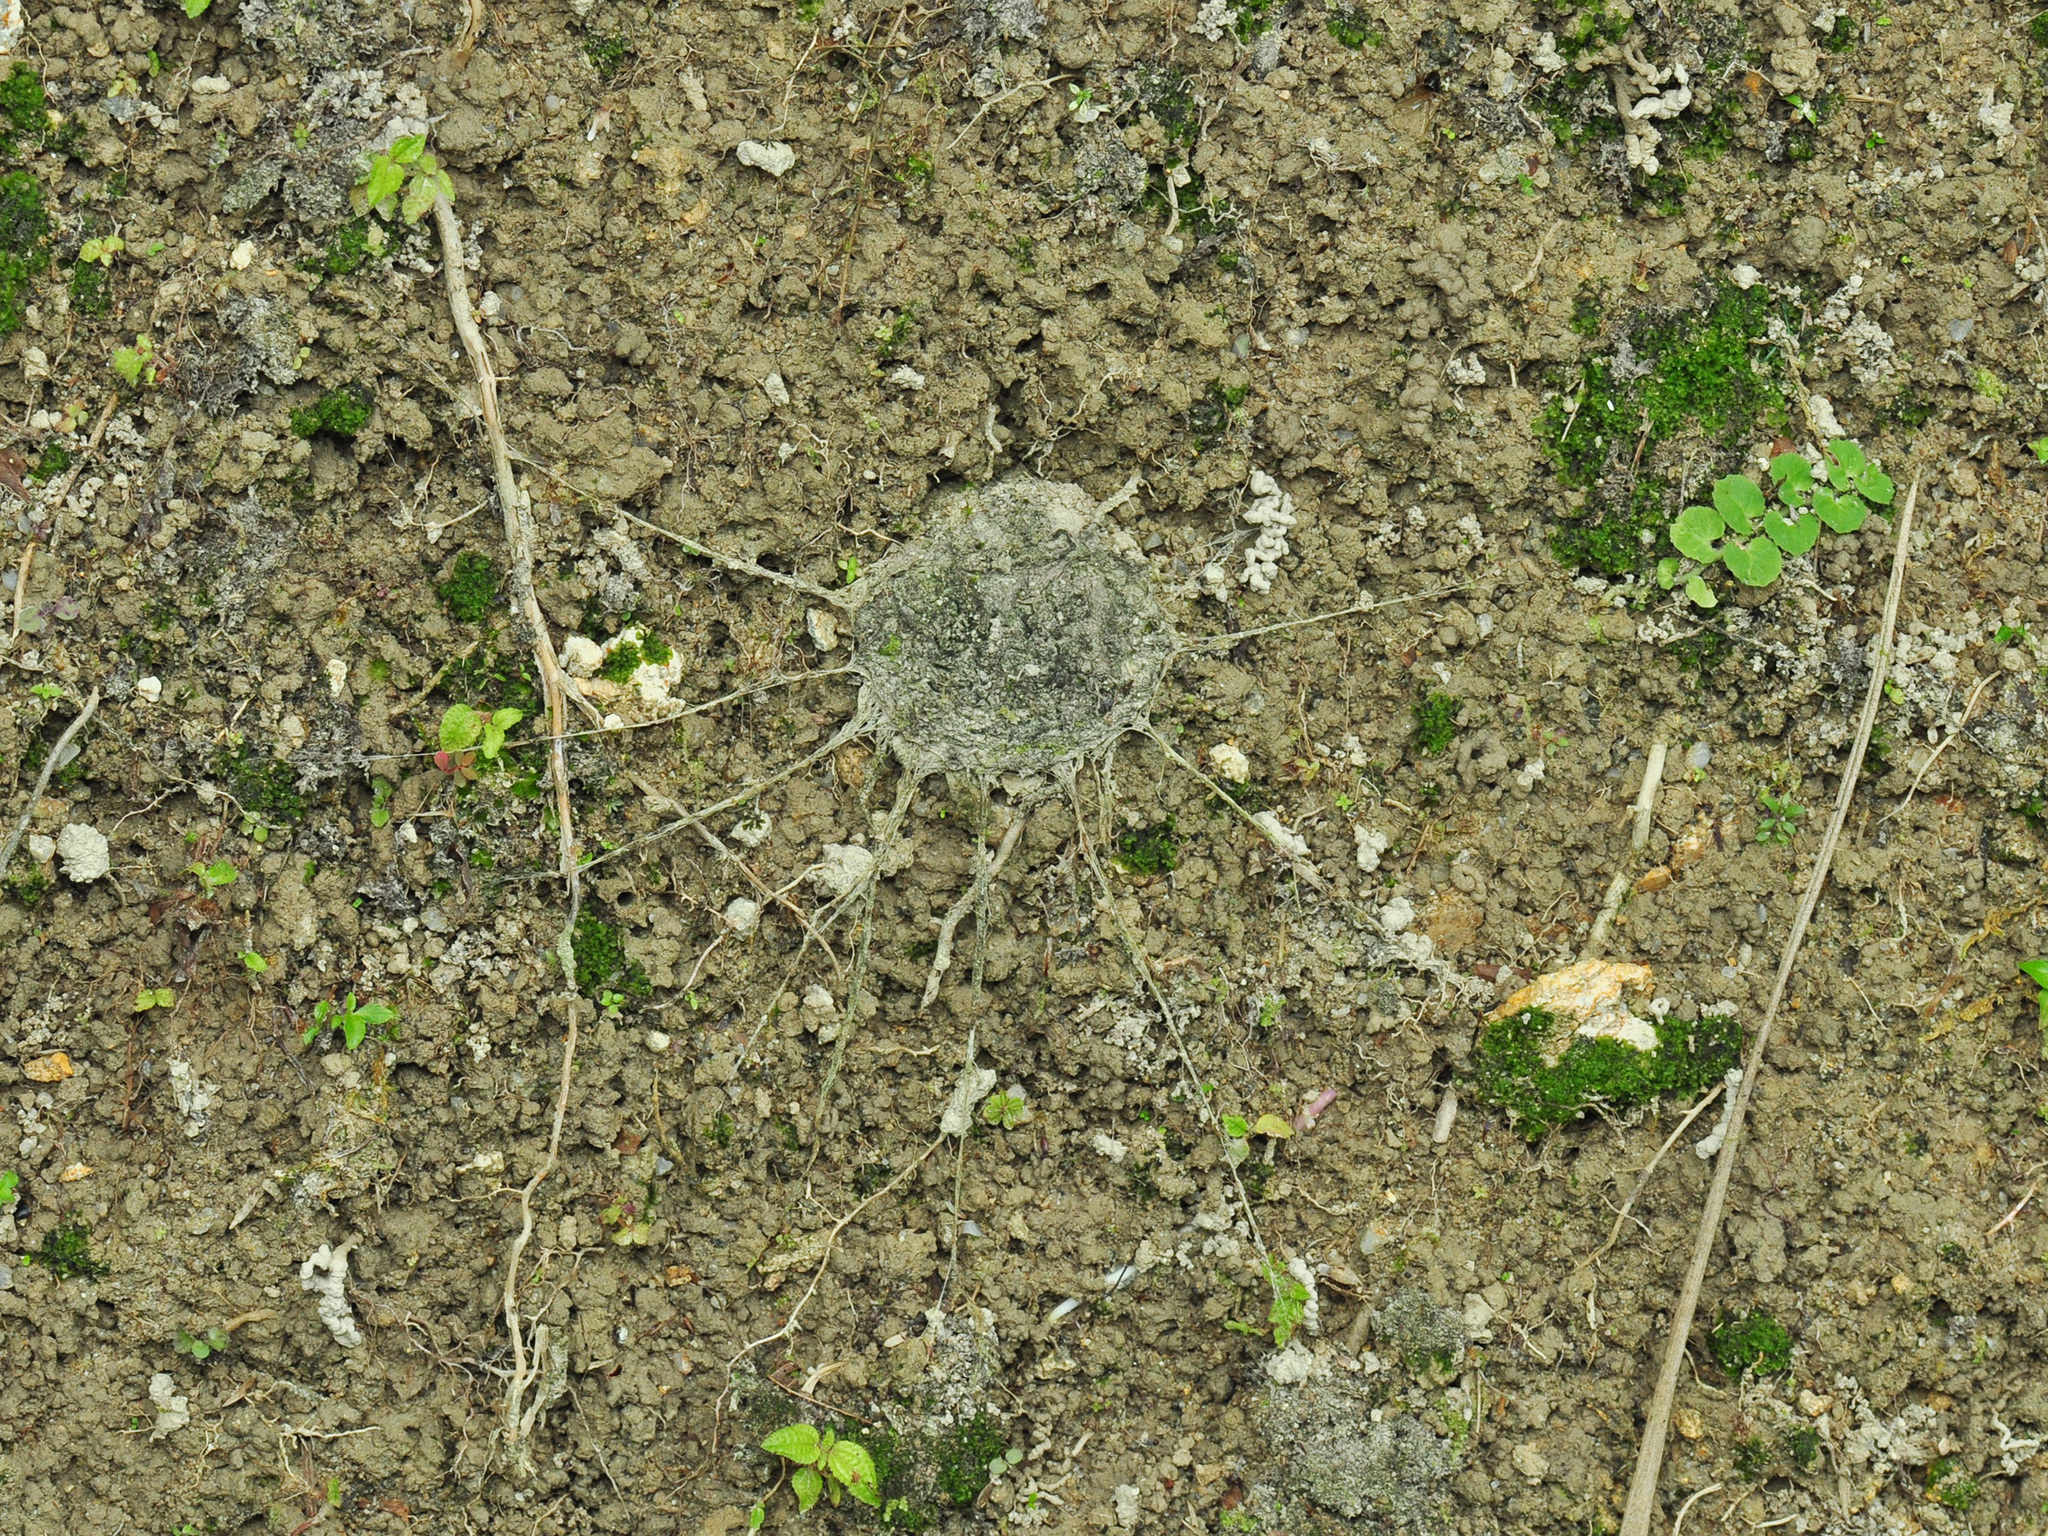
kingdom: Animalia
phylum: Arthropoda
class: Arachnida
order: Araneae
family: Liphistiidae
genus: Liphistius
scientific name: Liphistius malayanus
